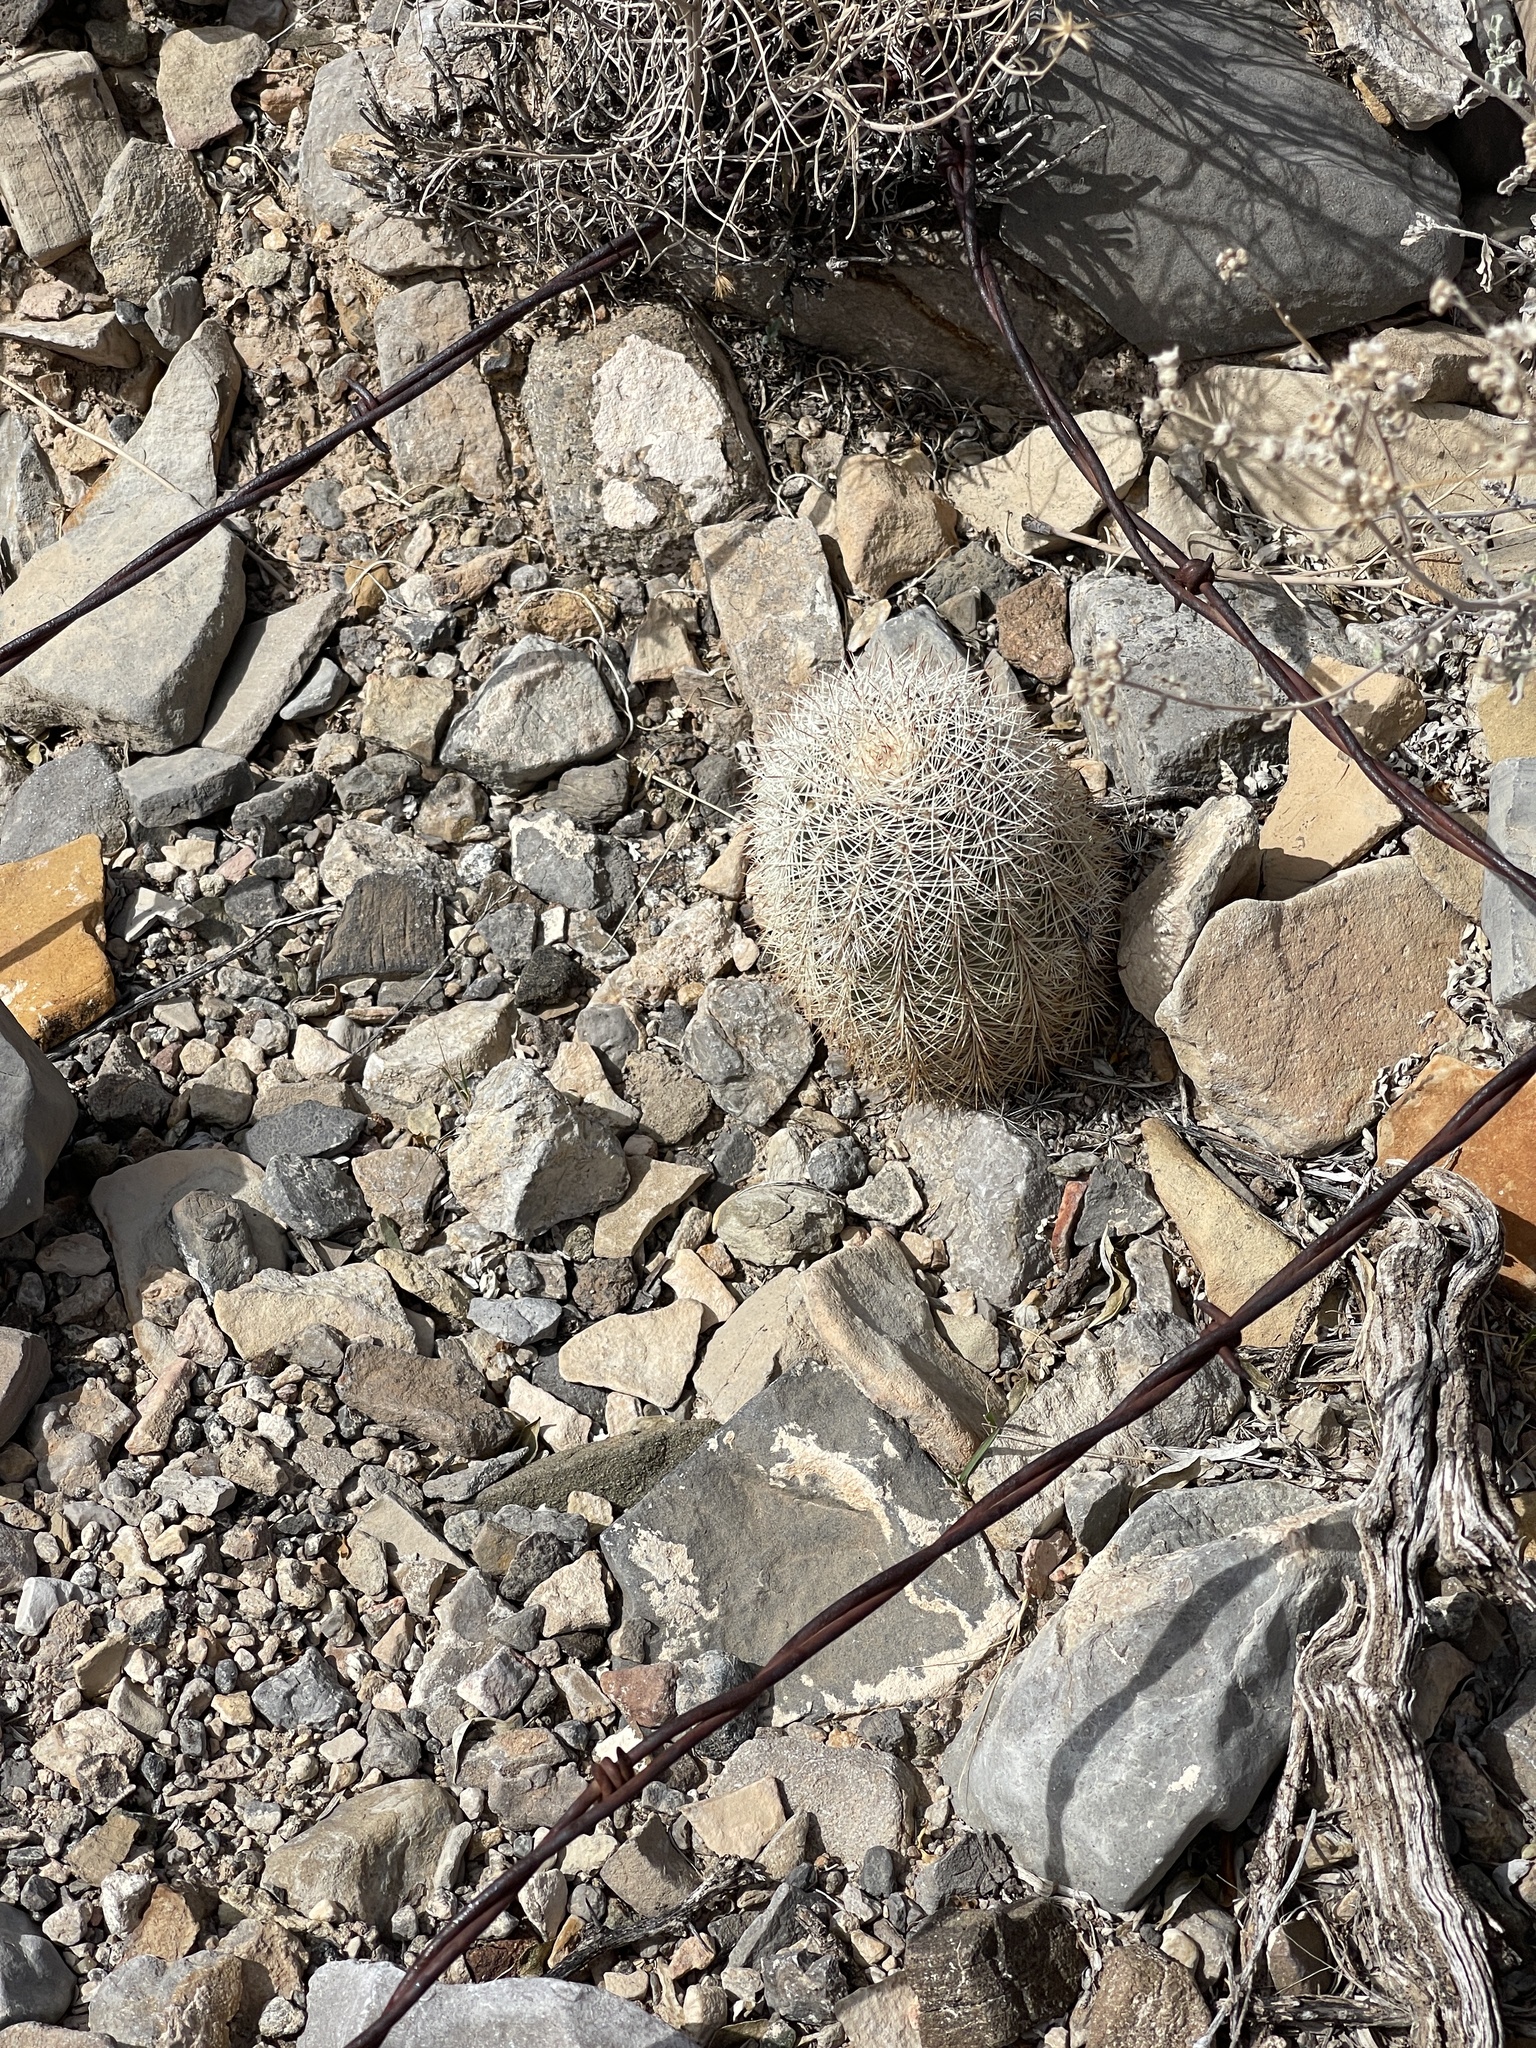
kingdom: Plantae
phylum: Tracheophyta
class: Magnoliopsida
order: Caryophyllales
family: Cactaceae
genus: Echinocereus
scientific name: Echinocereus dasyacanthus
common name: Spiny hedgehog cactus
